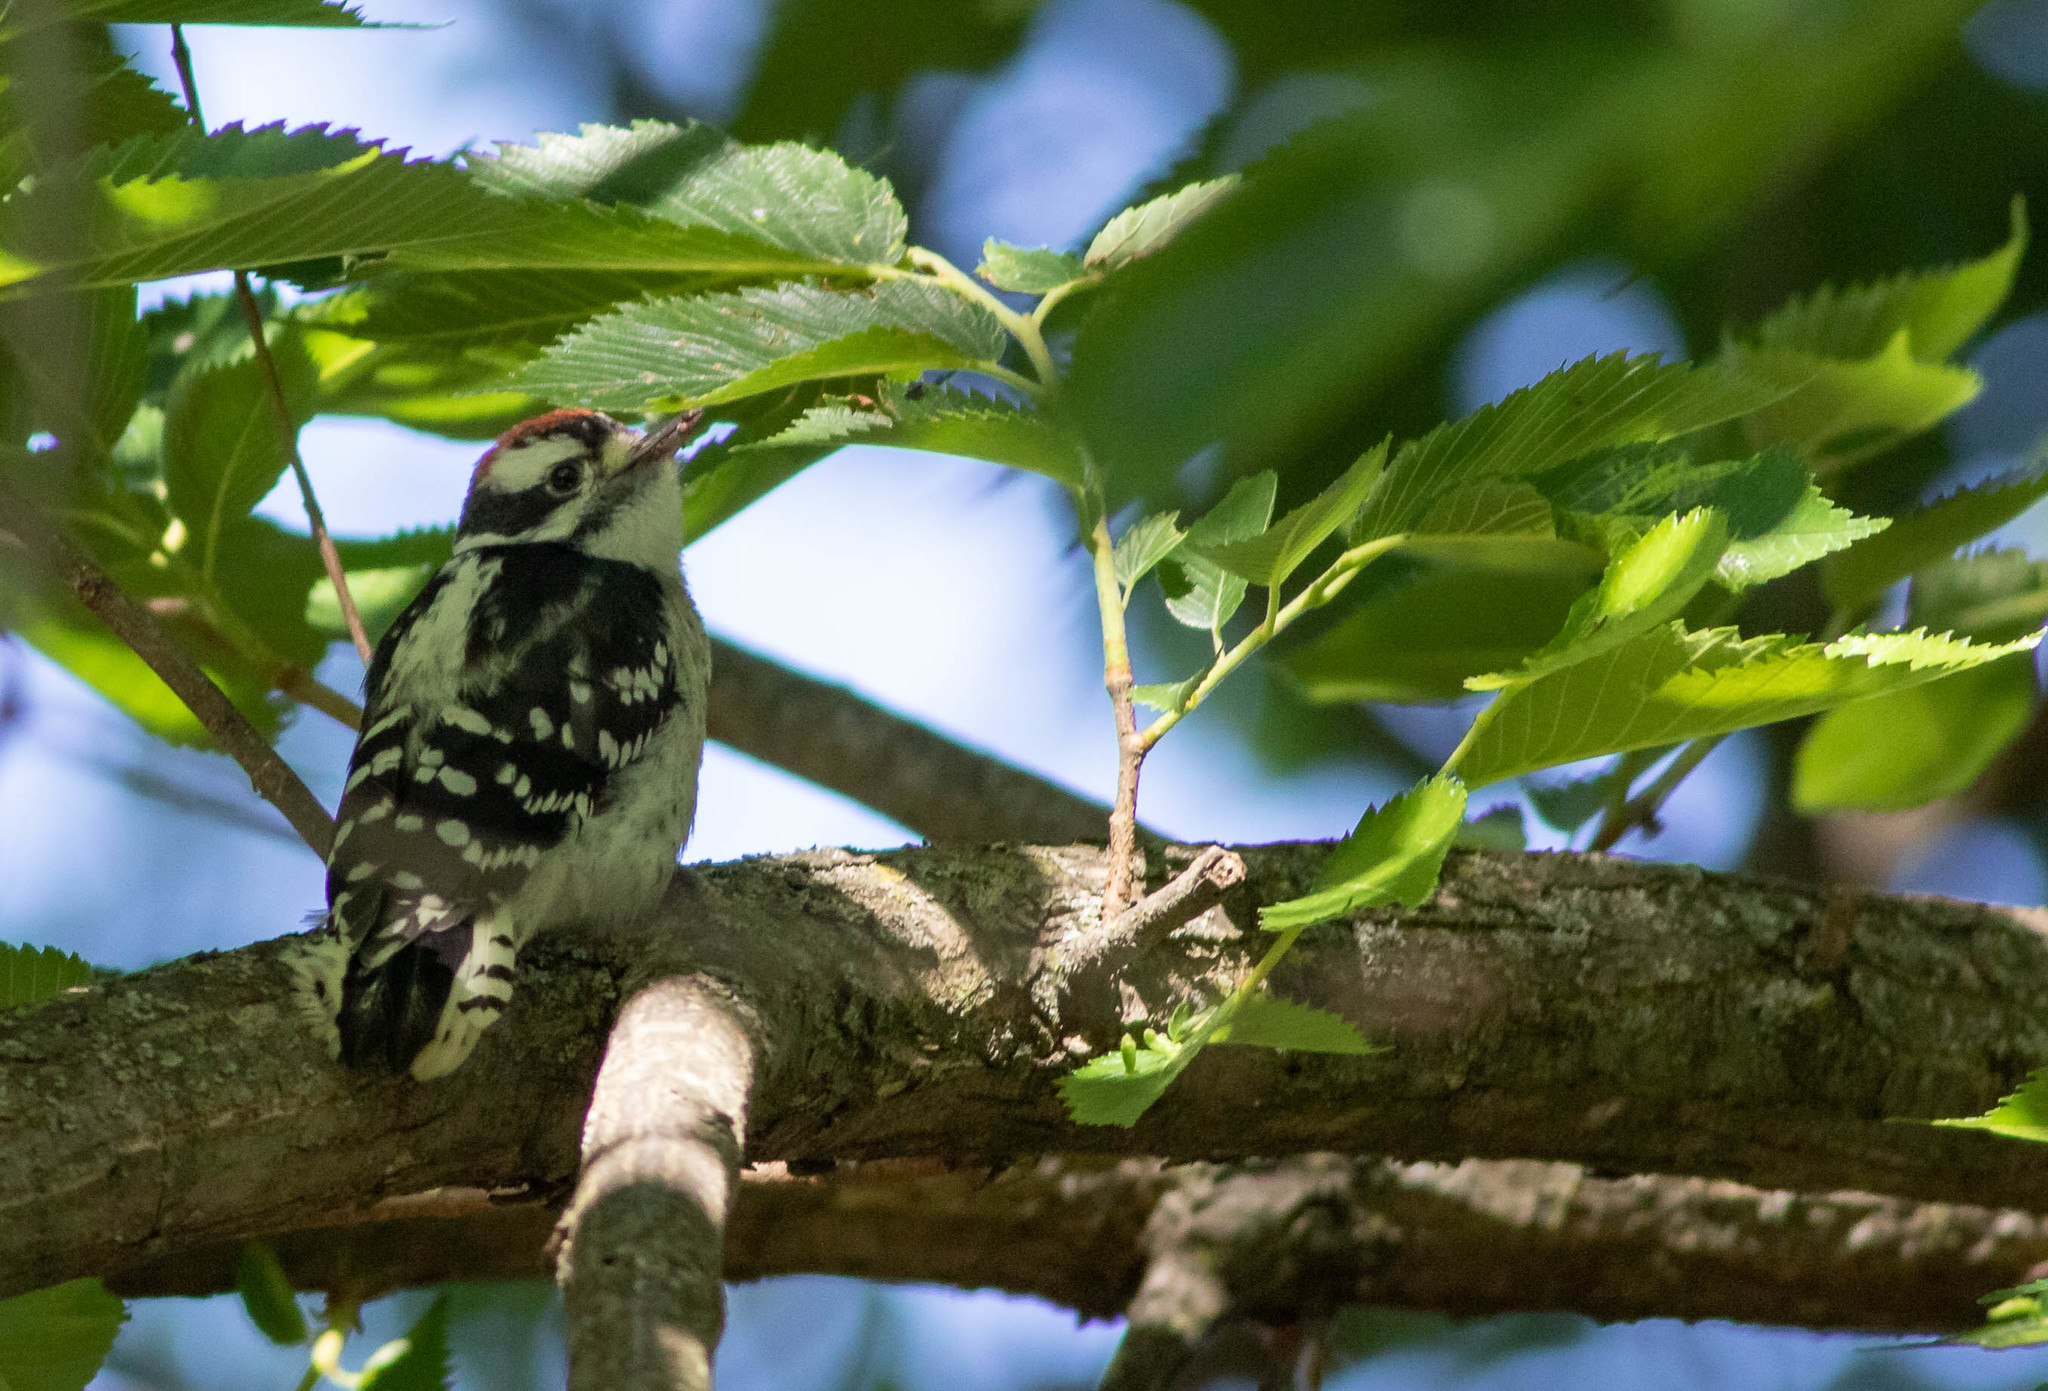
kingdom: Animalia
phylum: Chordata
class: Aves
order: Piciformes
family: Picidae
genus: Dryobates
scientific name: Dryobates pubescens
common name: Downy woodpecker
